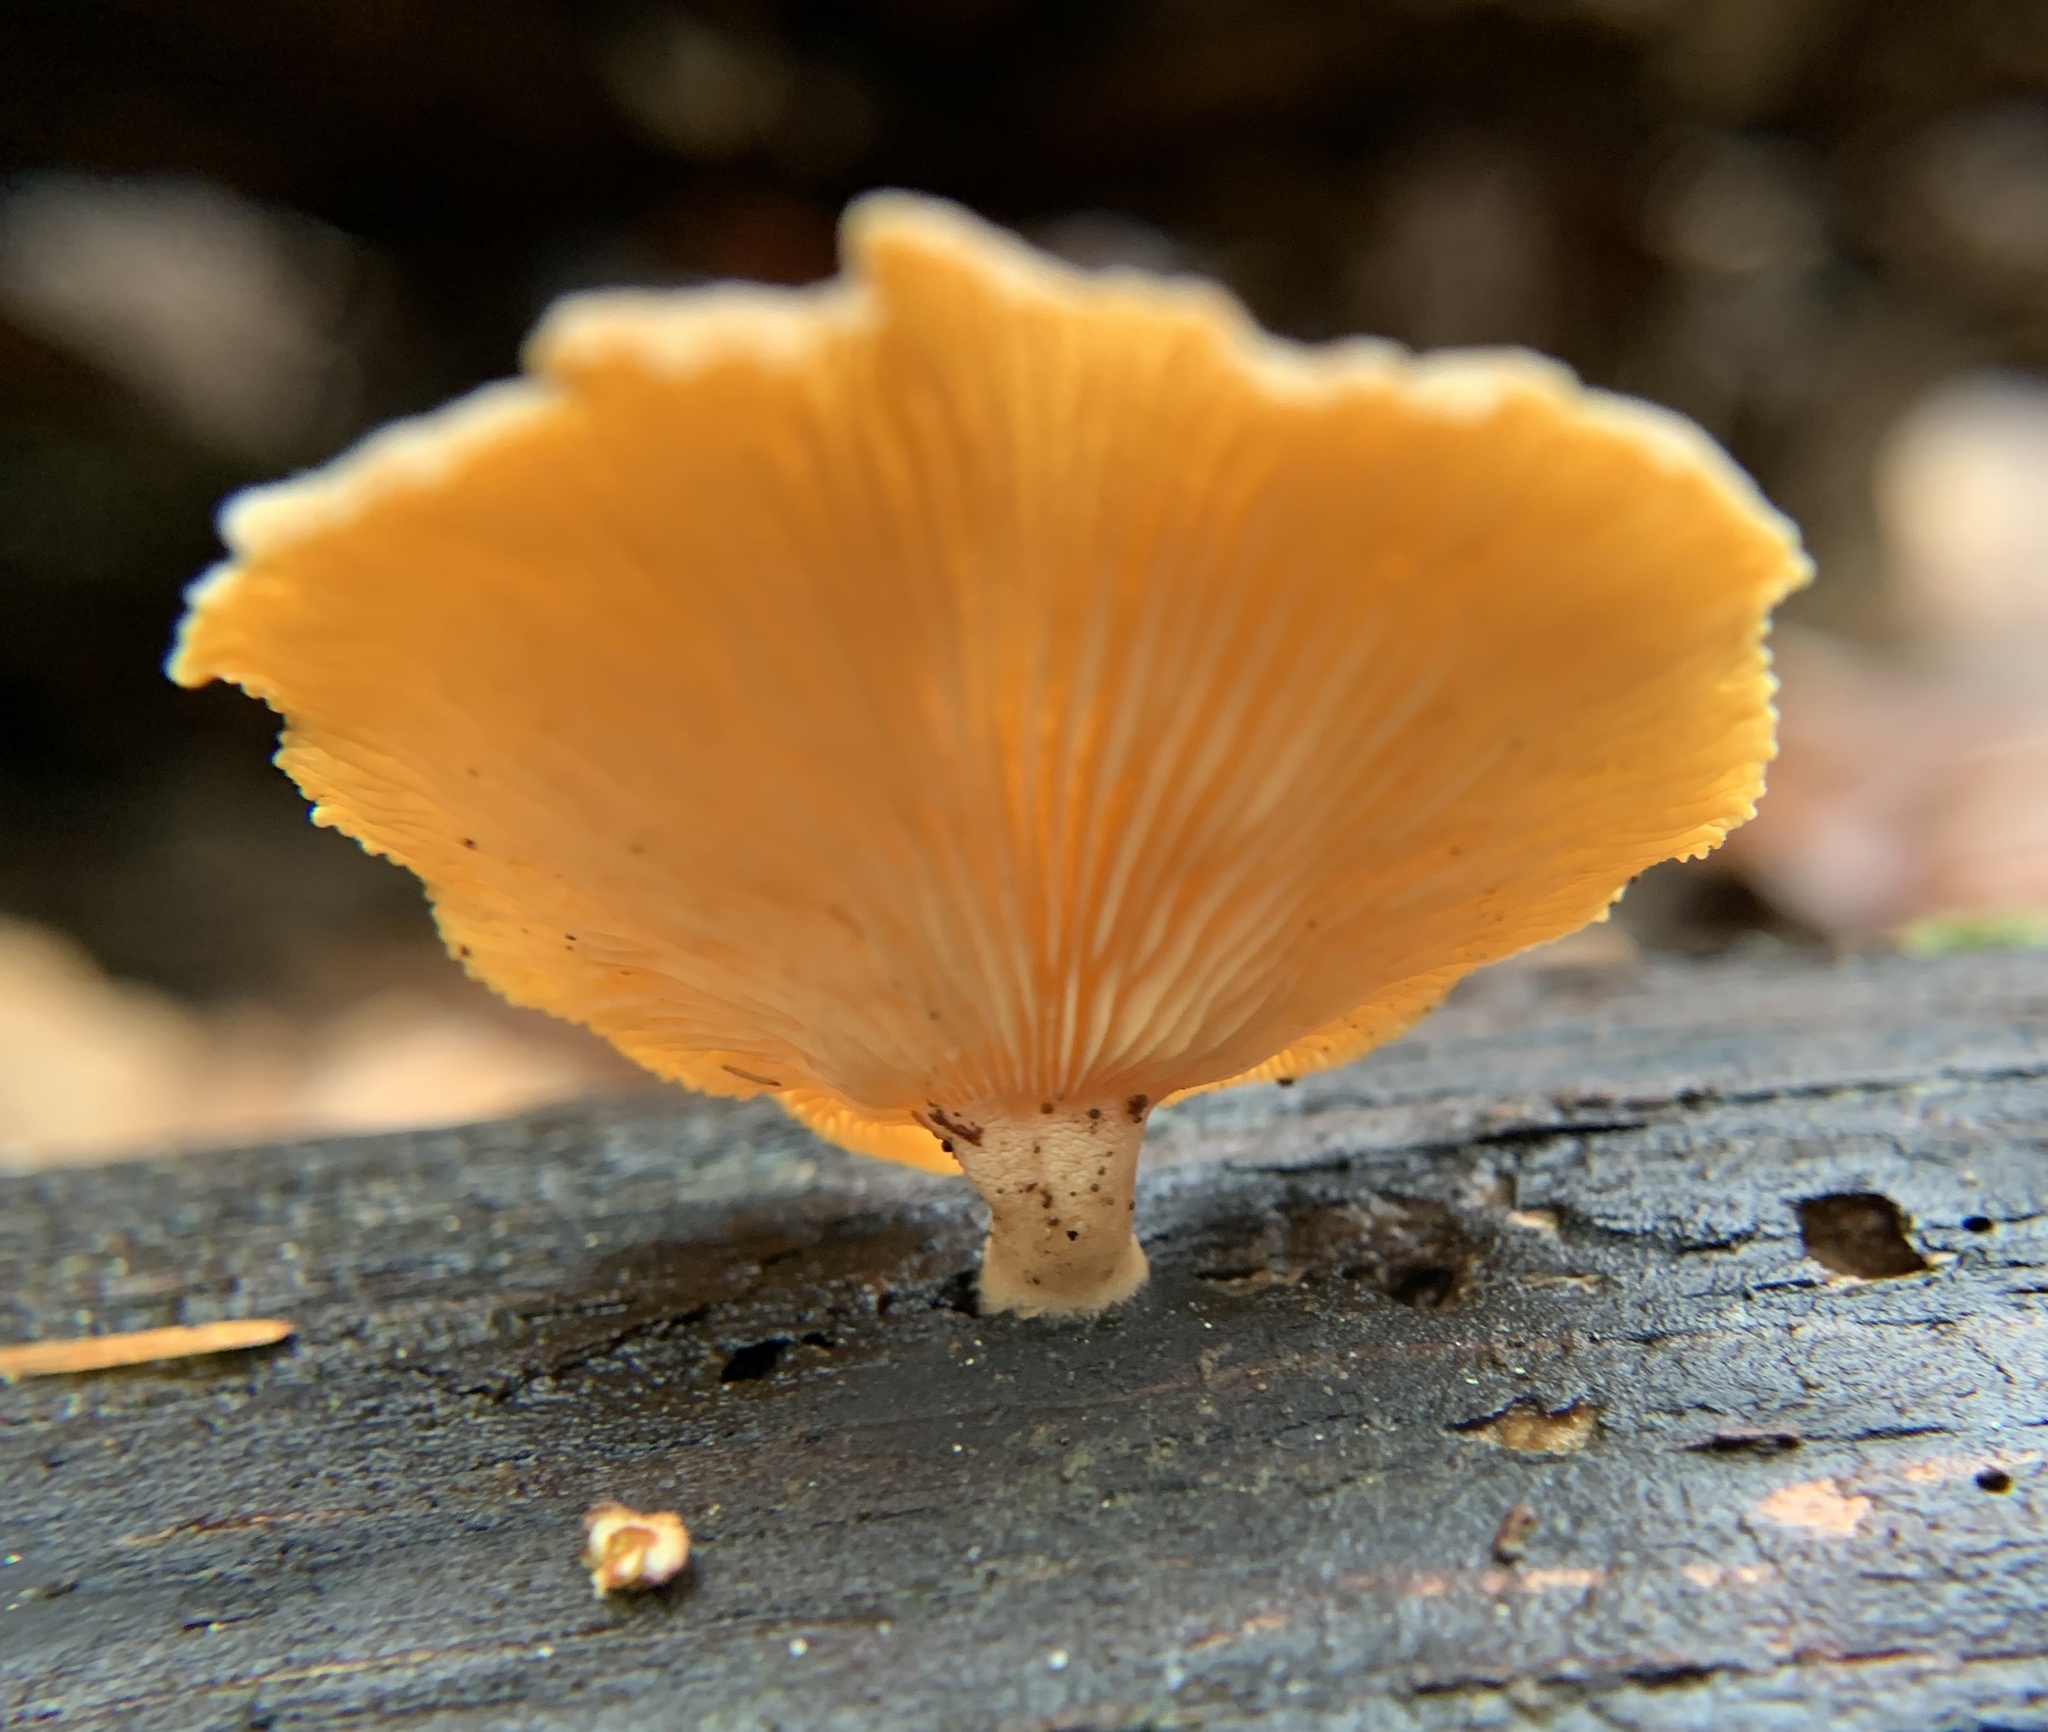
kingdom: Fungi
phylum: Basidiomycota
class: Agaricomycetes
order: Agaricales
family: Mycenaceae
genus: Panellus
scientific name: Panellus stipticus
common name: Bitter oysterling
